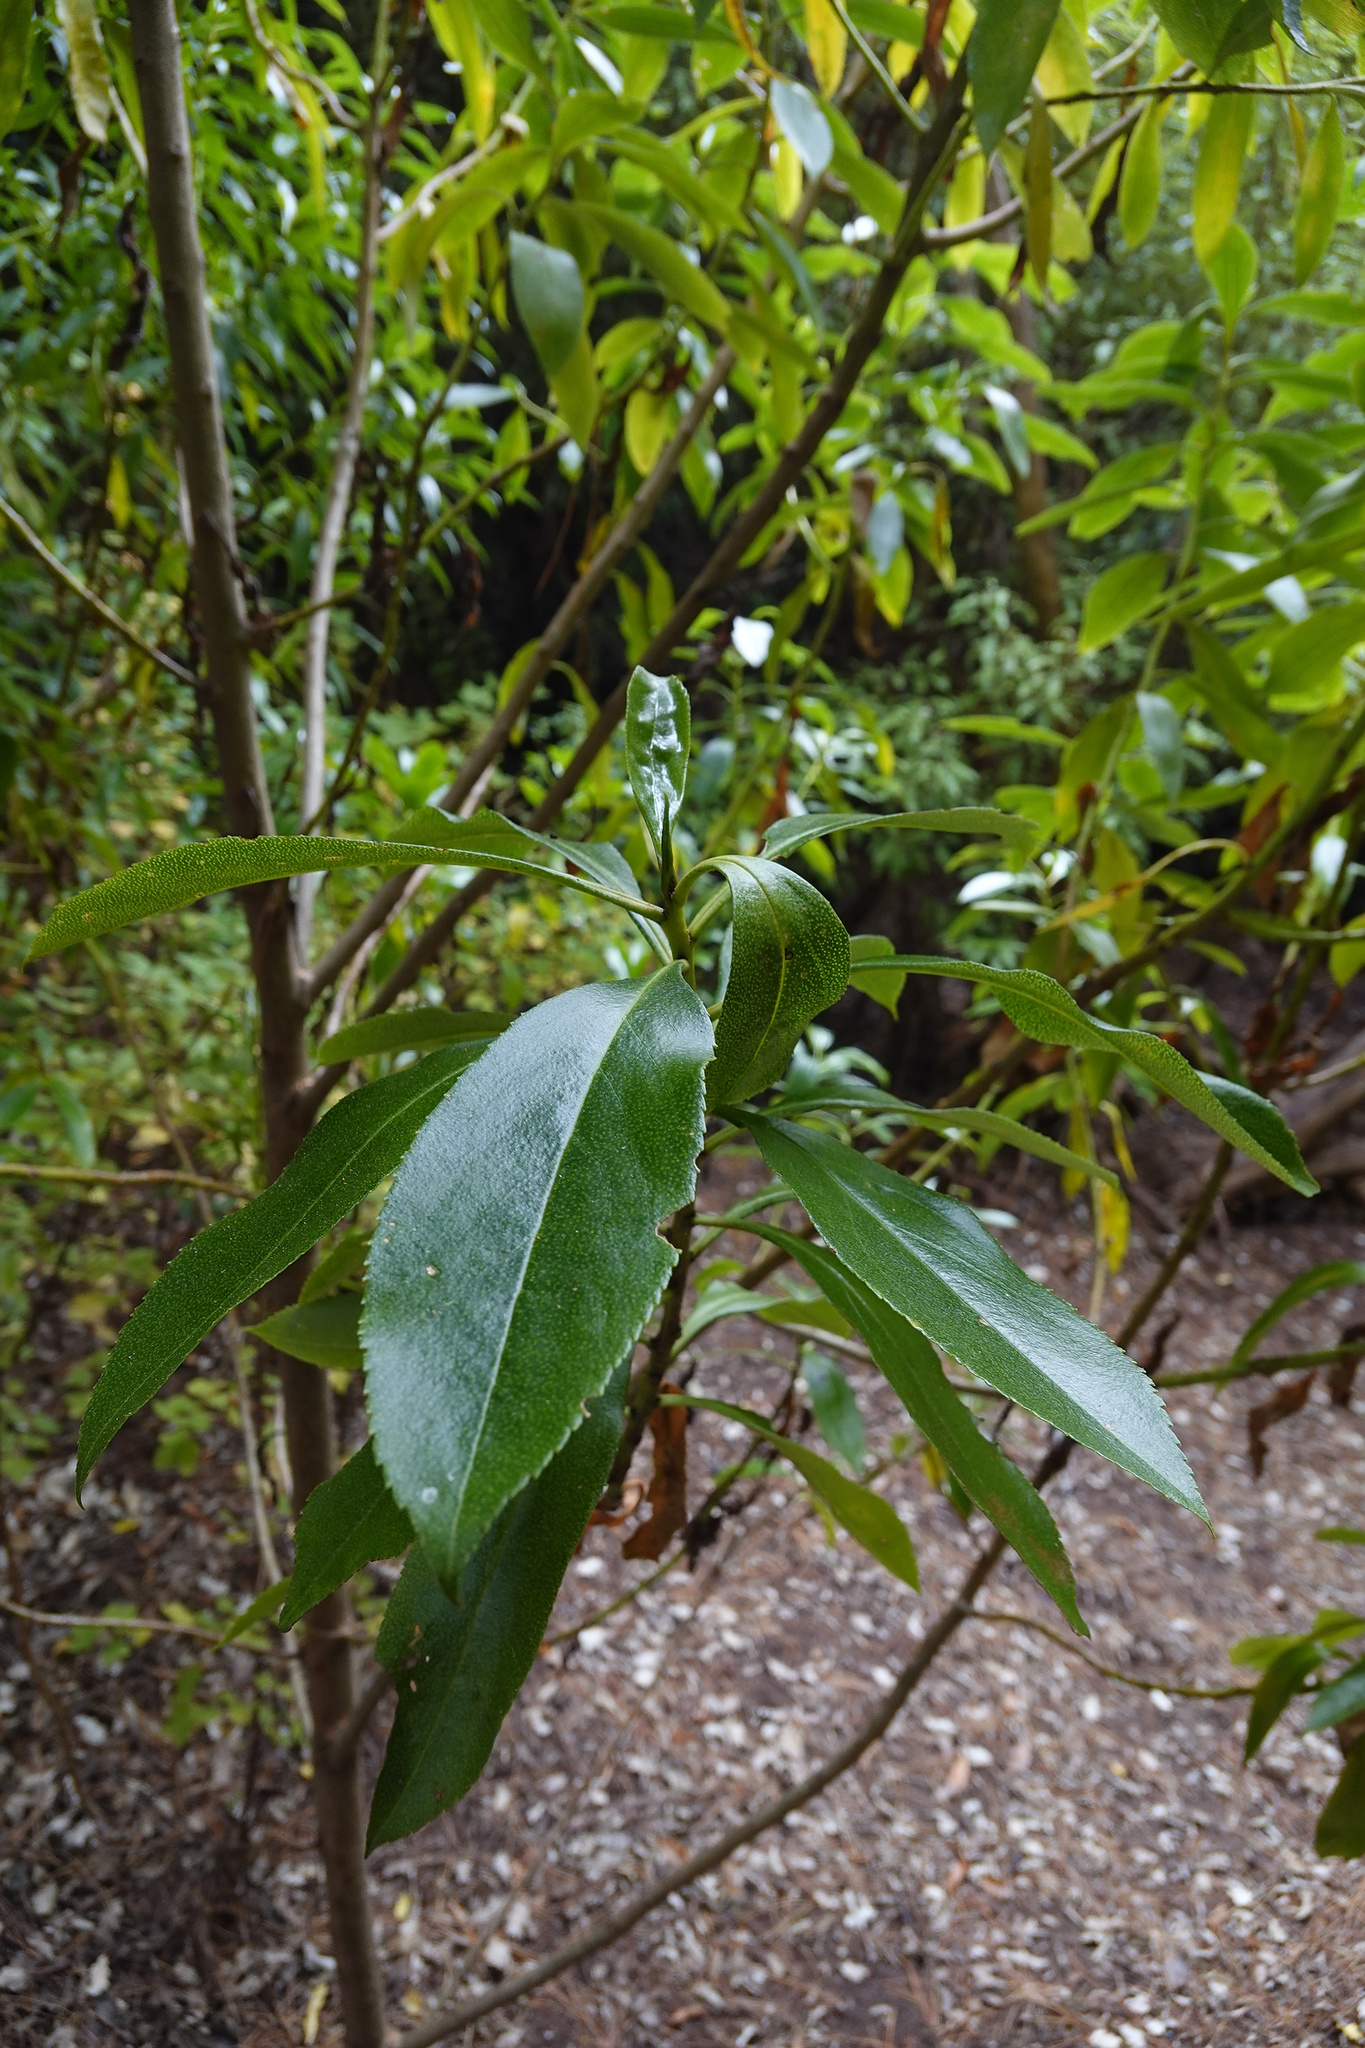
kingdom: Plantae
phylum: Tracheophyta
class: Magnoliopsida
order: Lamiales
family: Scrophulariaceae
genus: Myoporum
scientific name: Myoporum laetum
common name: Ngaio tree
